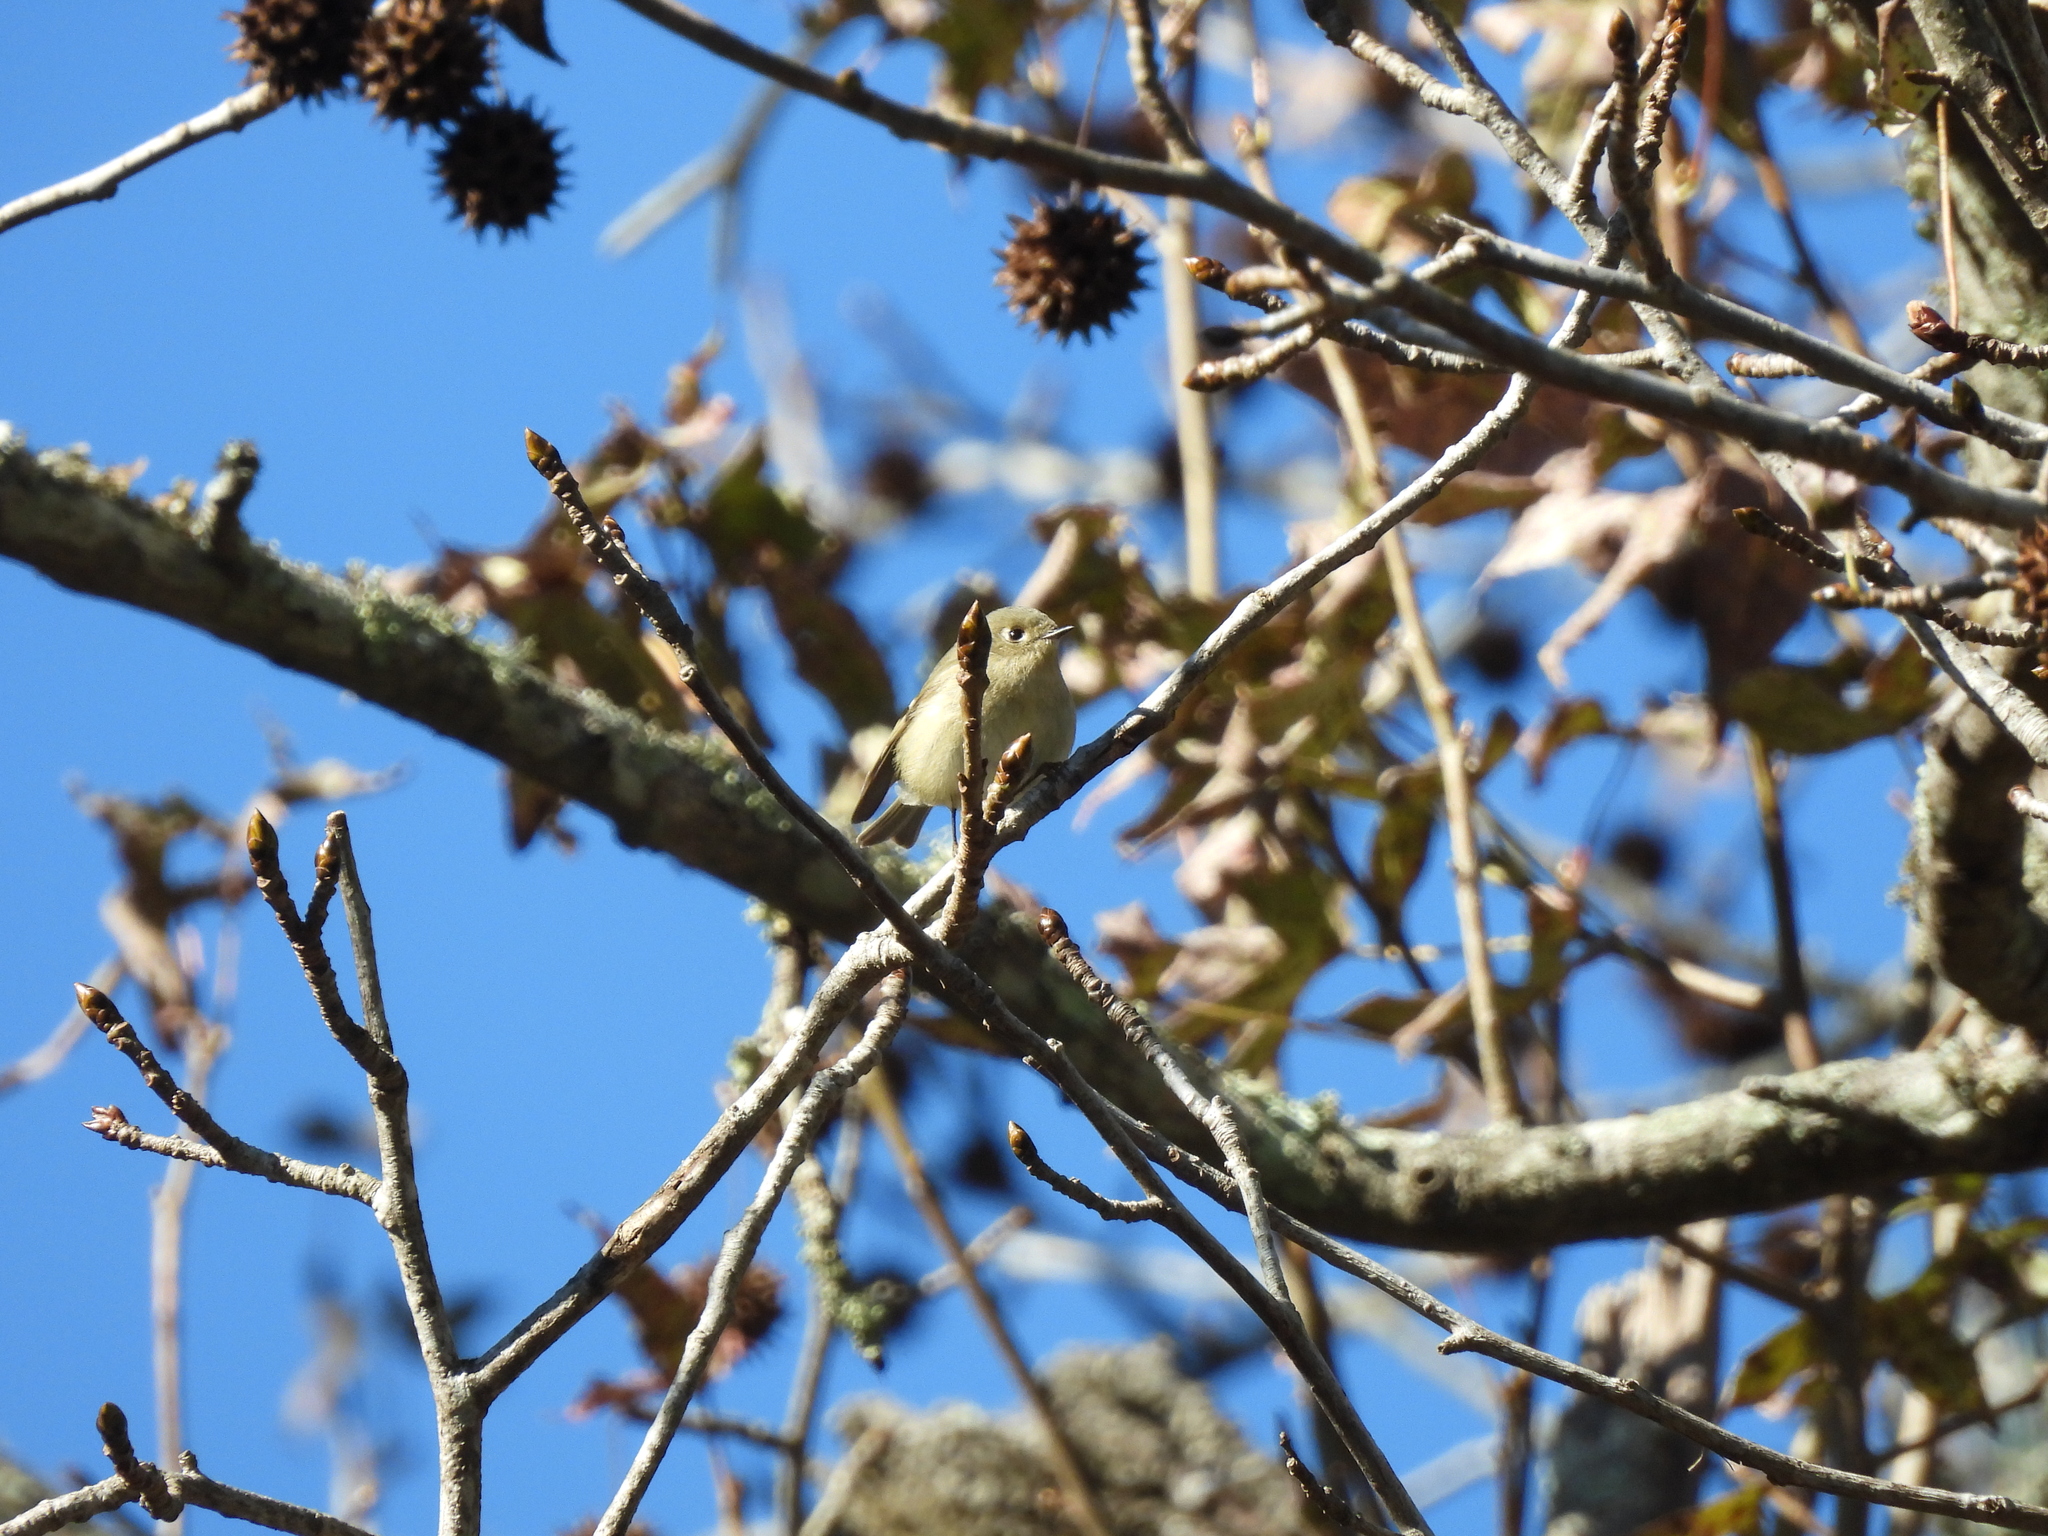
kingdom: Animalia
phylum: Chordata
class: Aves
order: Passeriformes
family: Regulidae
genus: Regulus
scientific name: Regulus calendula
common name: Ruby-crowned kinglet
